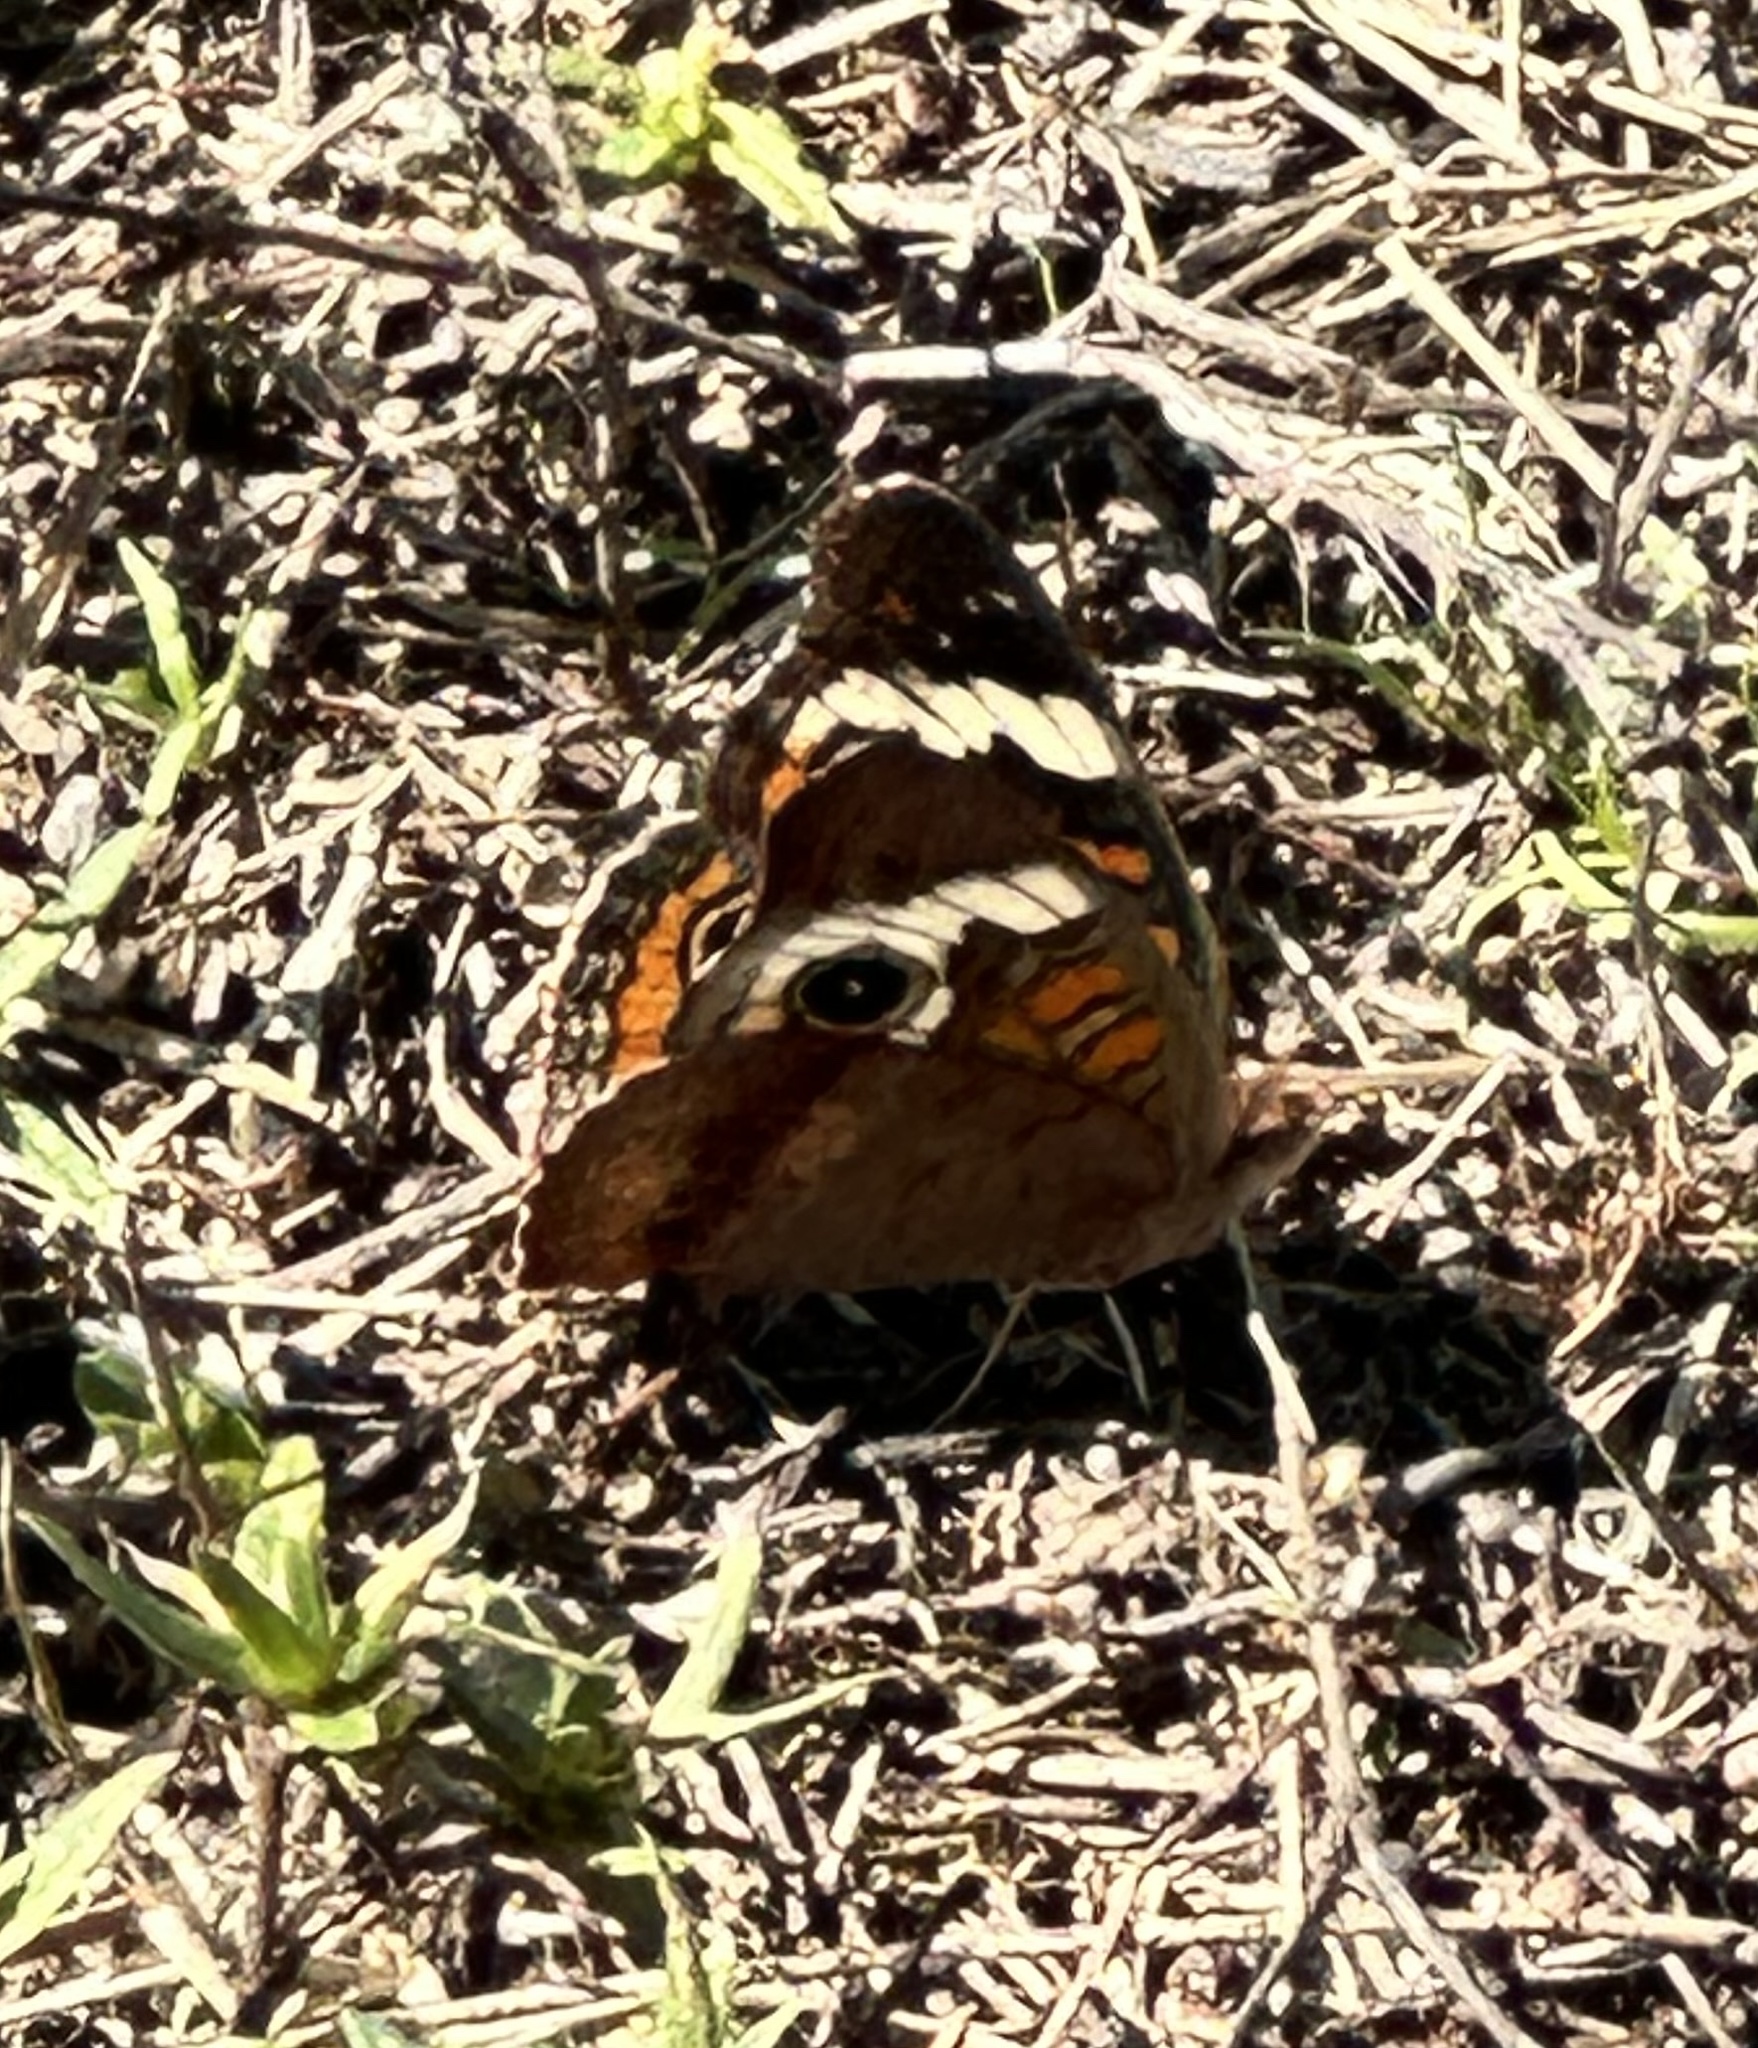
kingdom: Animalia
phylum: Arthropoda
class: Insecta
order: Lepidoptera
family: Nymphalidae
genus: Junonia
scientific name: Junonia coenia
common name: Common buckeye
